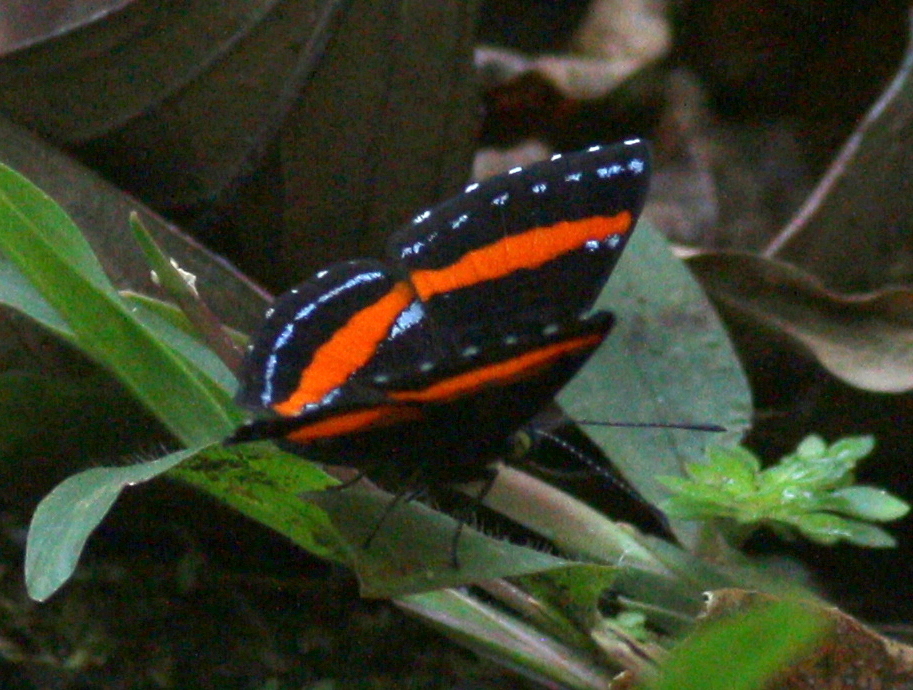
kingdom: Animalia
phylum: Arthropoda
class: Insecta
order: Lepidoptera
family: Riodinidae
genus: Crocozona
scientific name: Crocozona coecias
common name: Orange-banded gem
